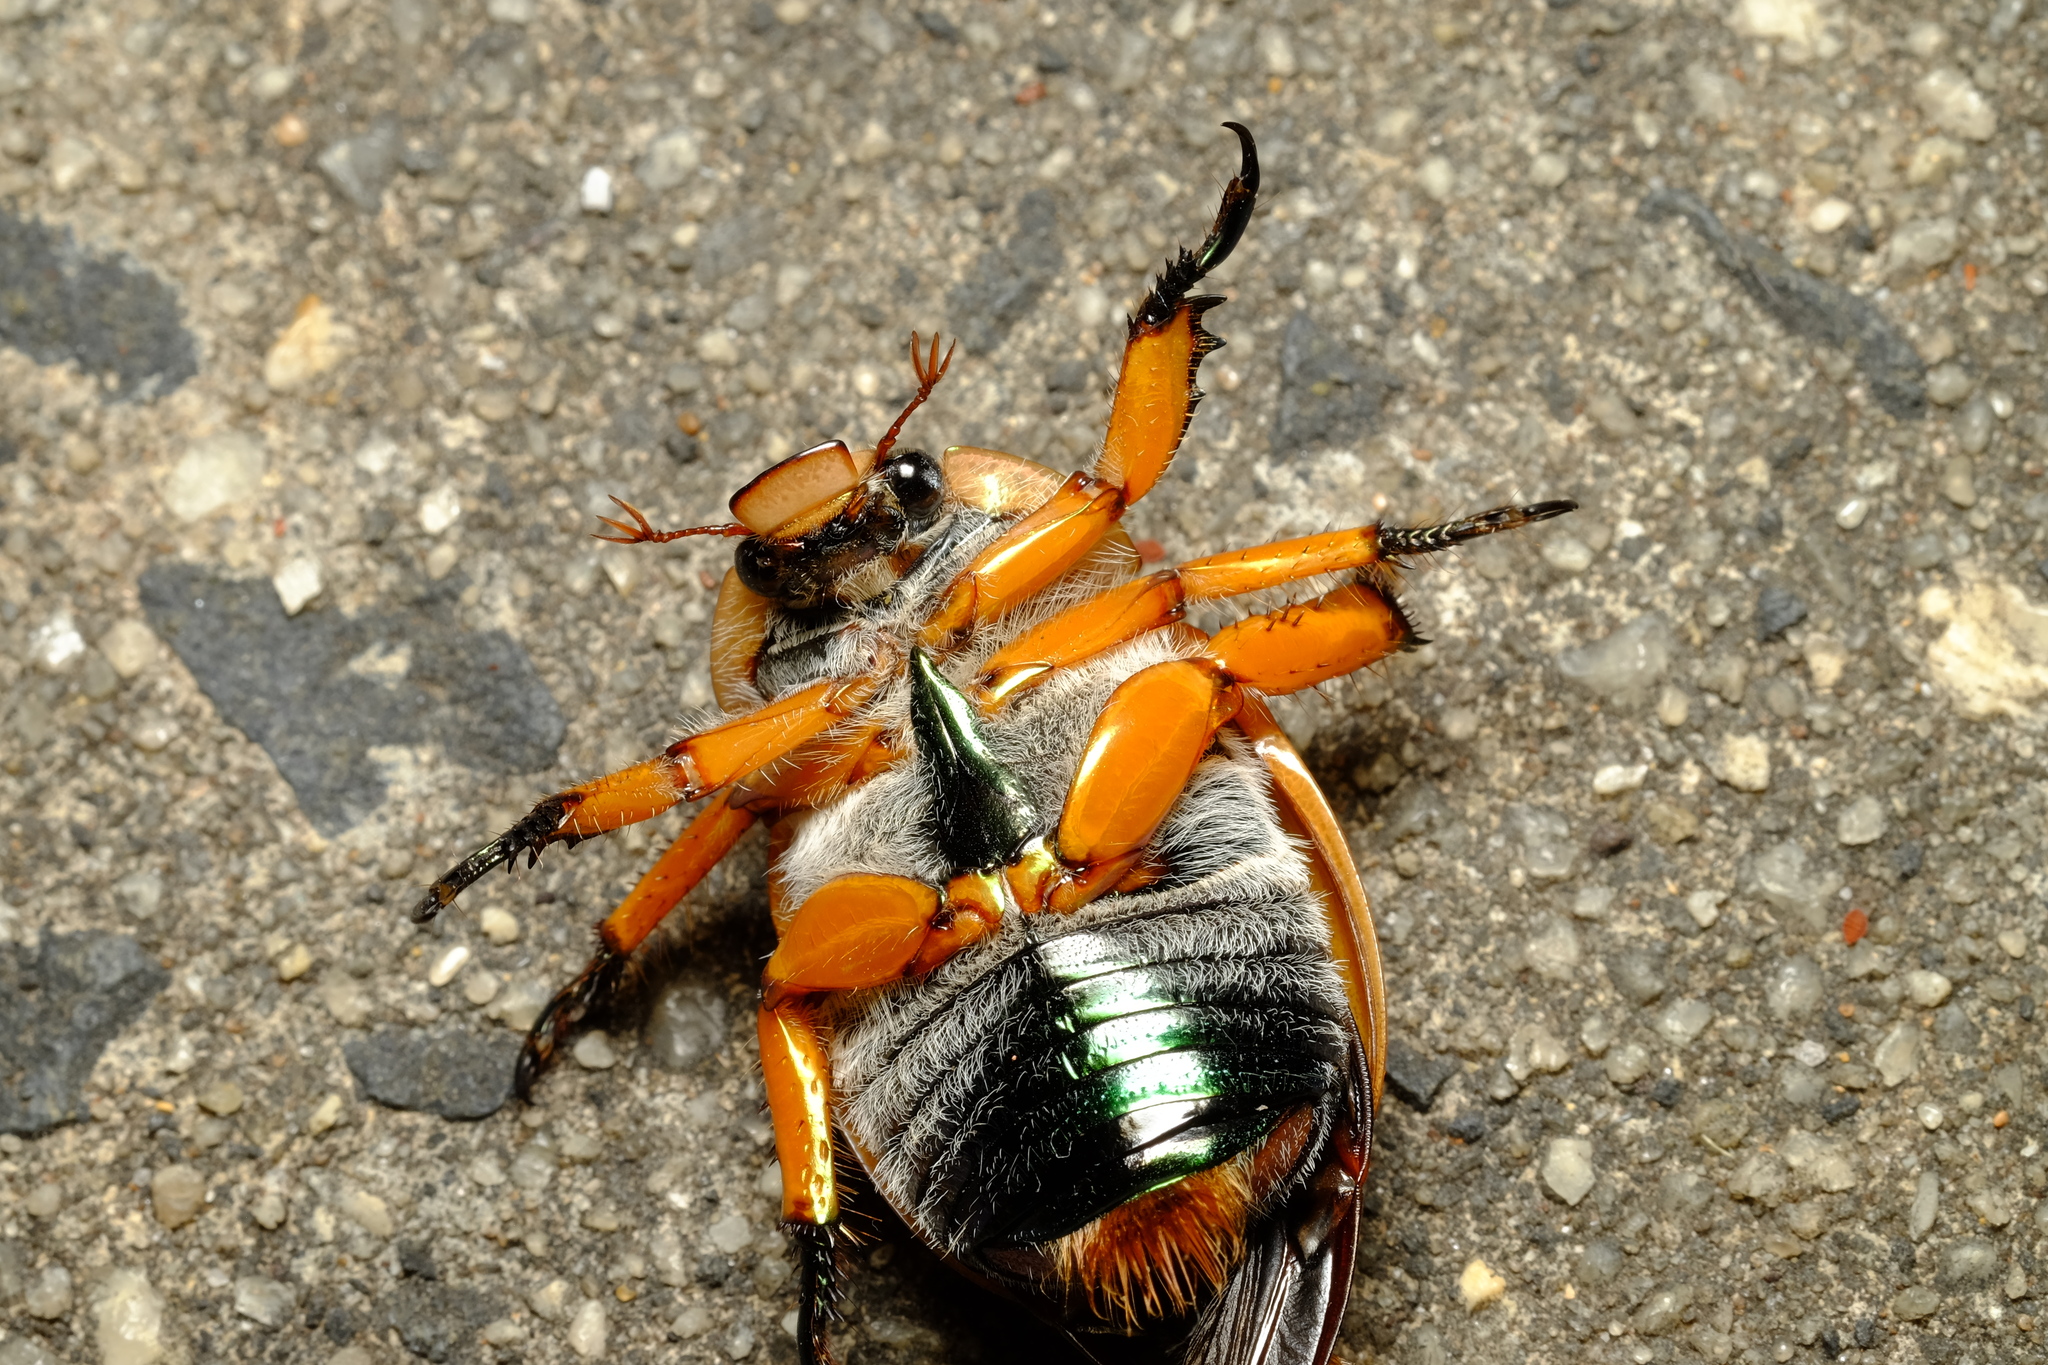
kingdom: Animalia
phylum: Arthropoda
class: Insecta
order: Coleoptera
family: Scarabaeidae
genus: Anoplognathus
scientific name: Anoplognathus viriditarsis
